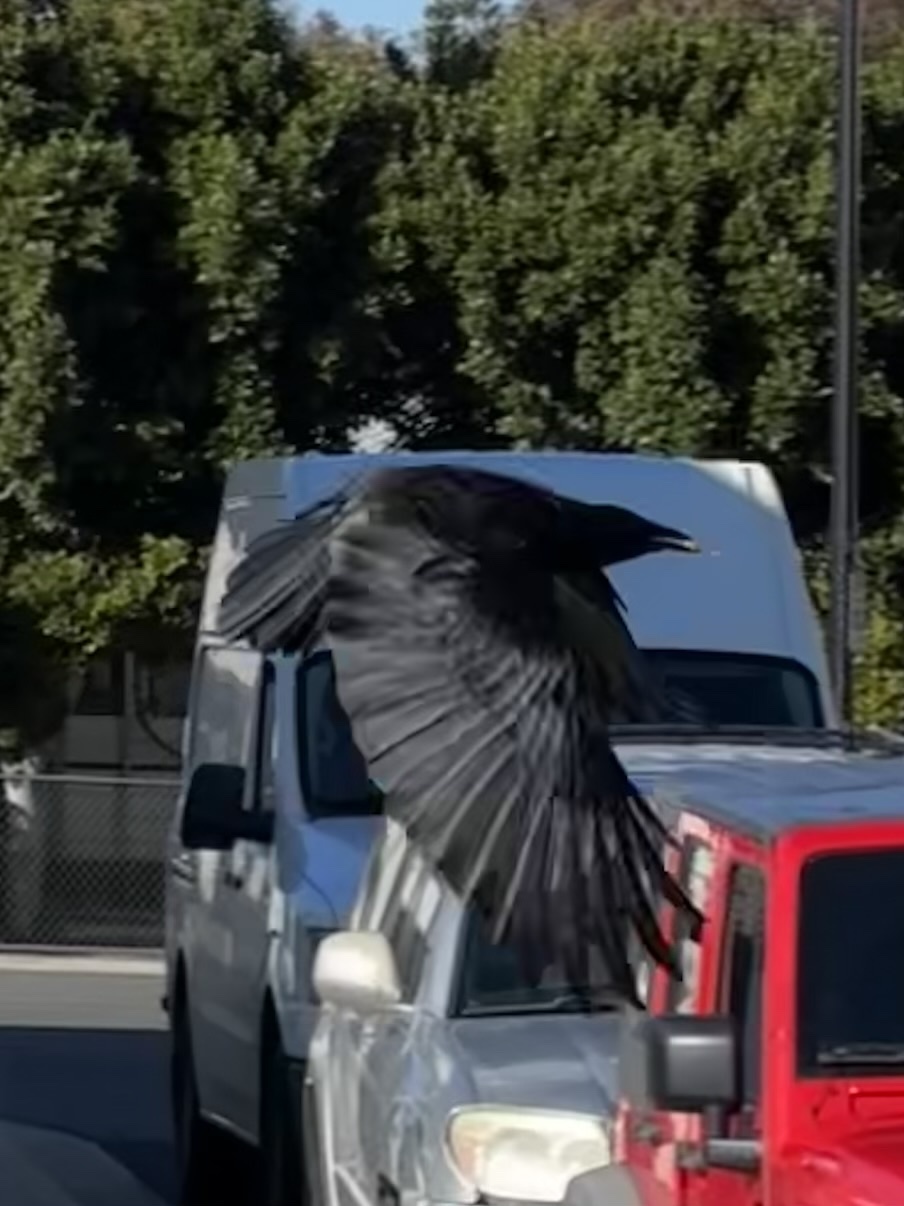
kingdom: Animalia
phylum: Chordata
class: Aves
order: Passeriformes
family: Corvidae
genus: Corvus
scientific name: Corvus brachyrhynchos
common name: American crow
